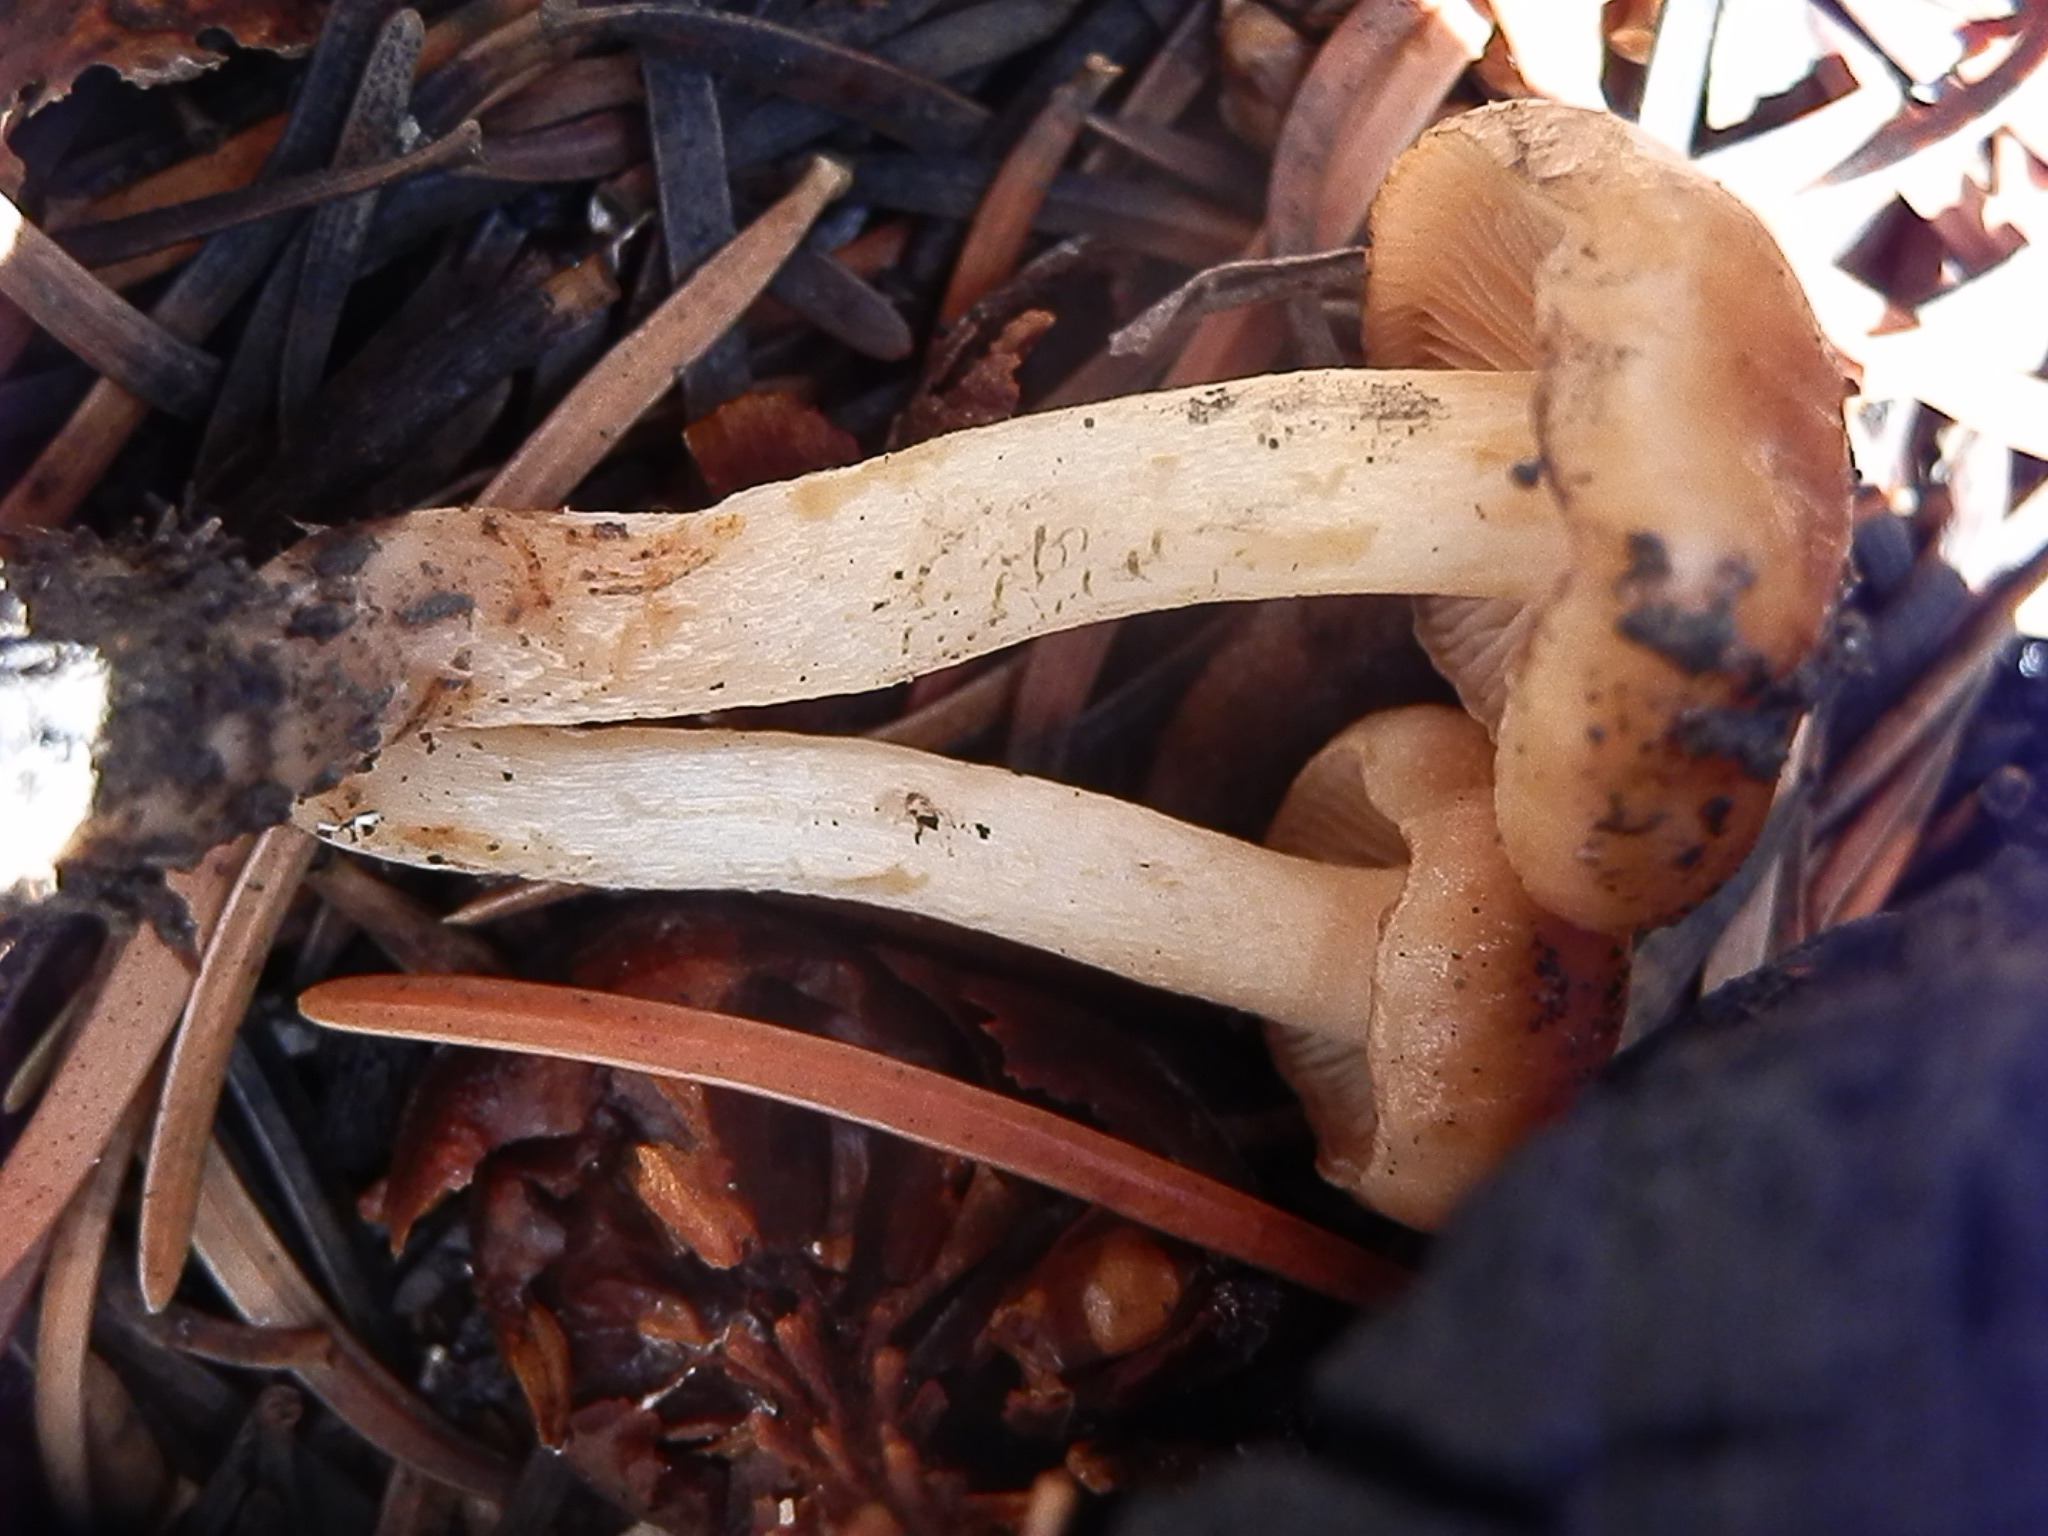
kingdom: Fungi
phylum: Basidiomycota
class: Agaricomycetes
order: Agaricales
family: Strophariaceae
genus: Pholiota
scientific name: Pholiota brunnescens
